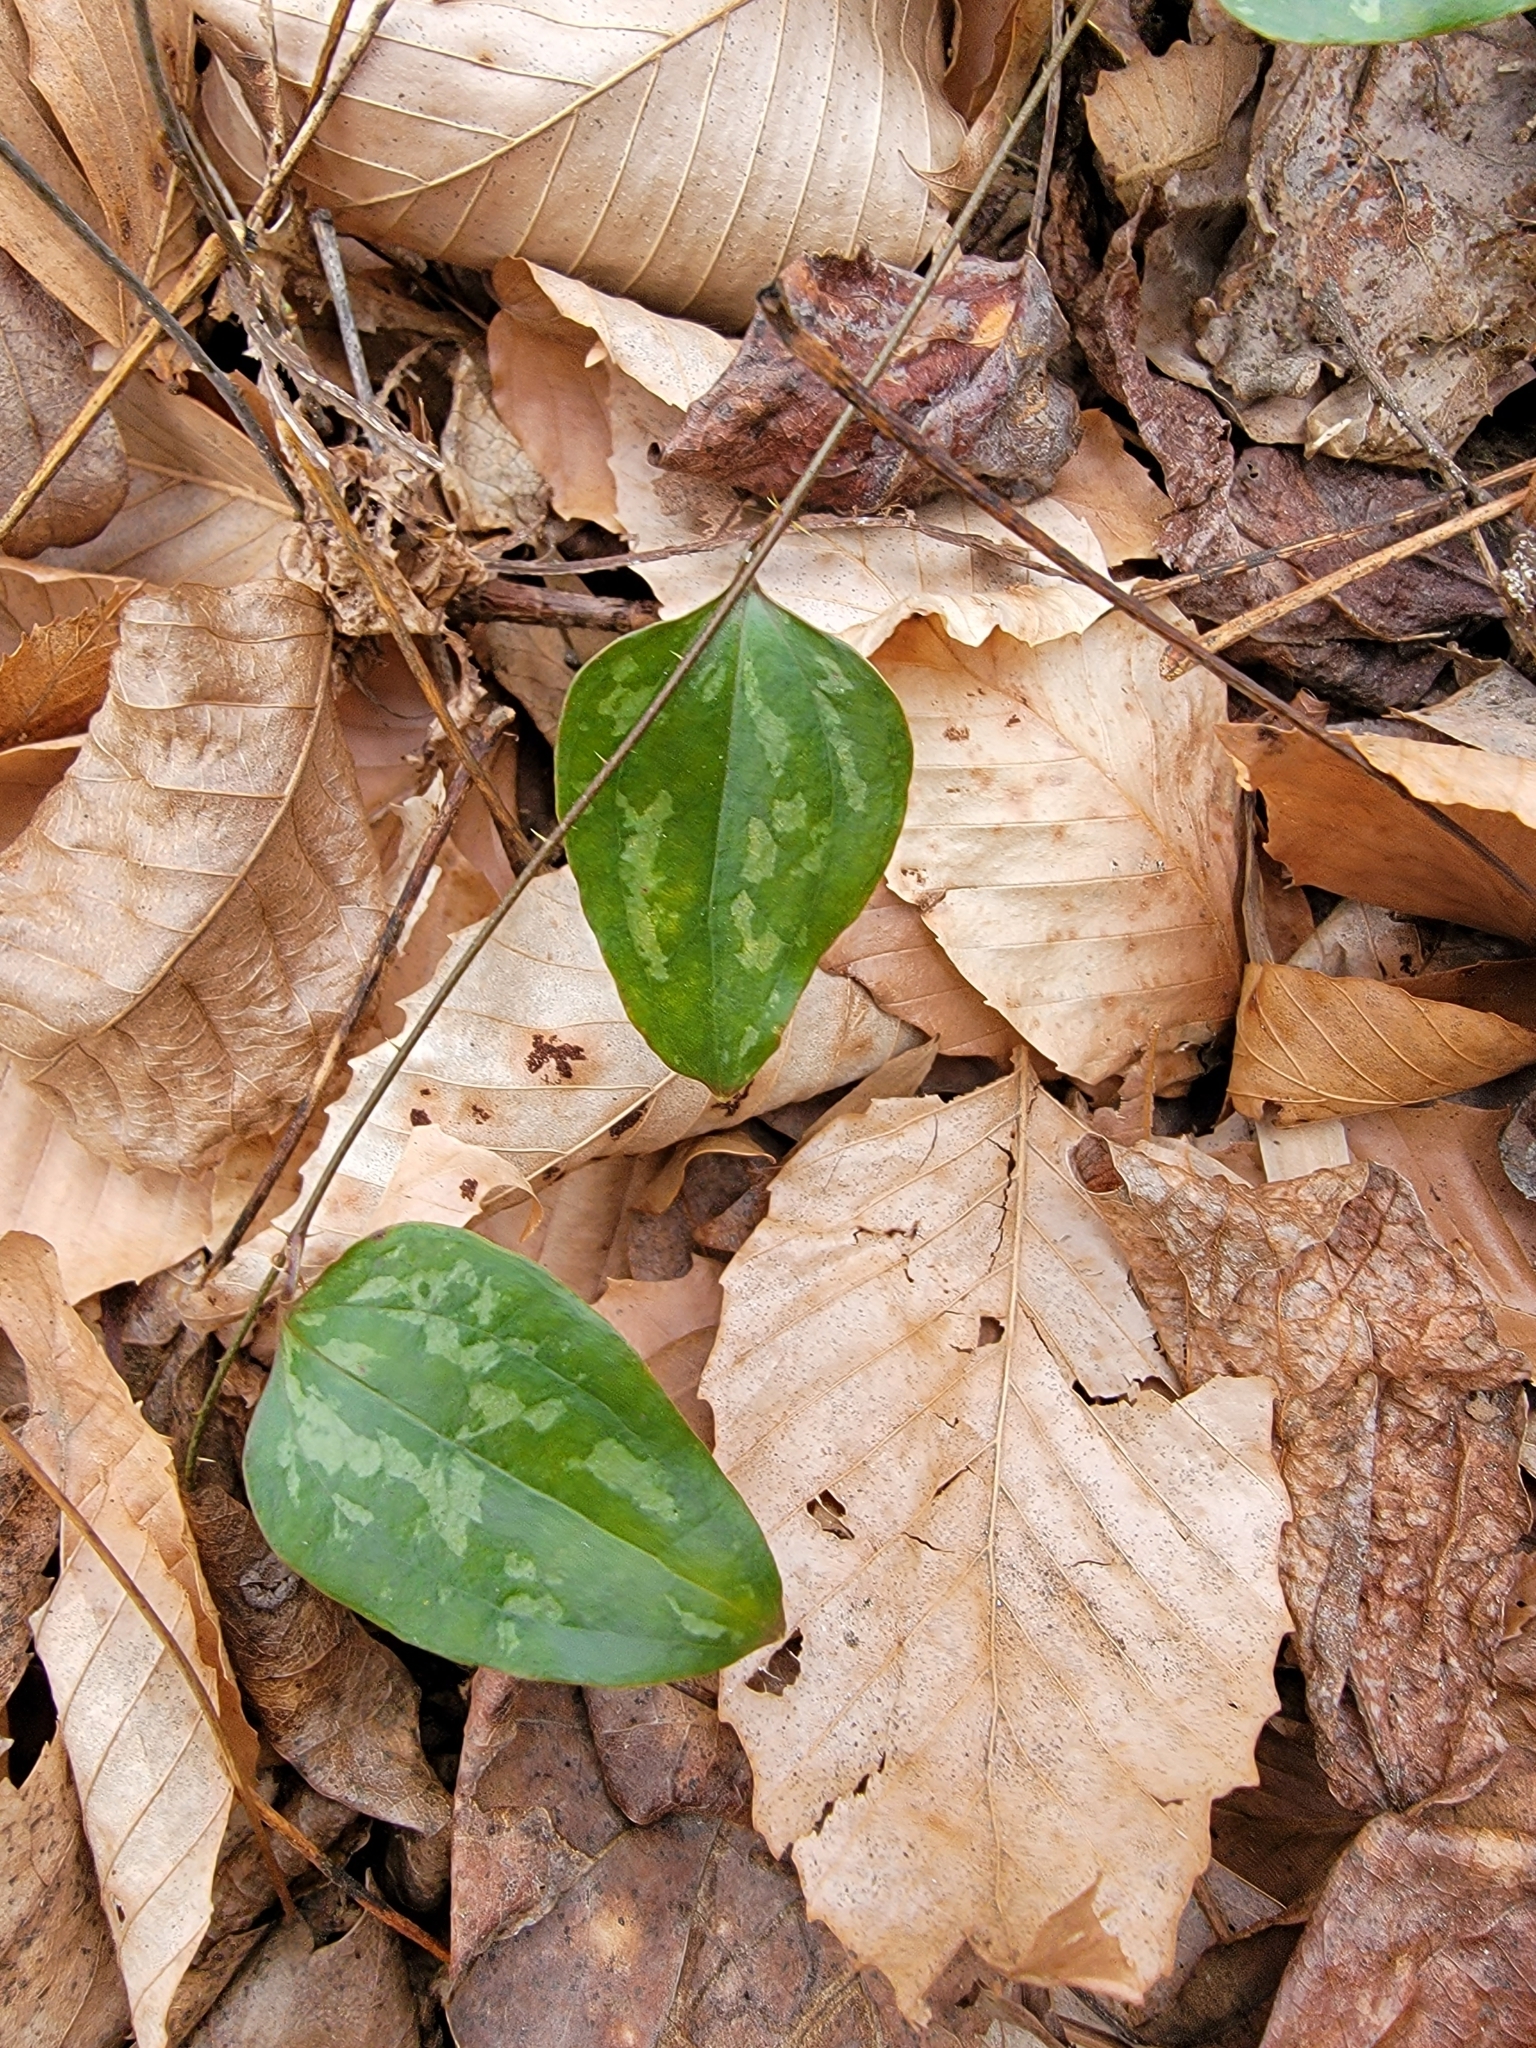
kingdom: Plantae
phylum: Tracheophyta
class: Liliopsida
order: Liliales
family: Smilacaceae
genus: Smilax
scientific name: Smilax glauca
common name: Cat greenbrier
